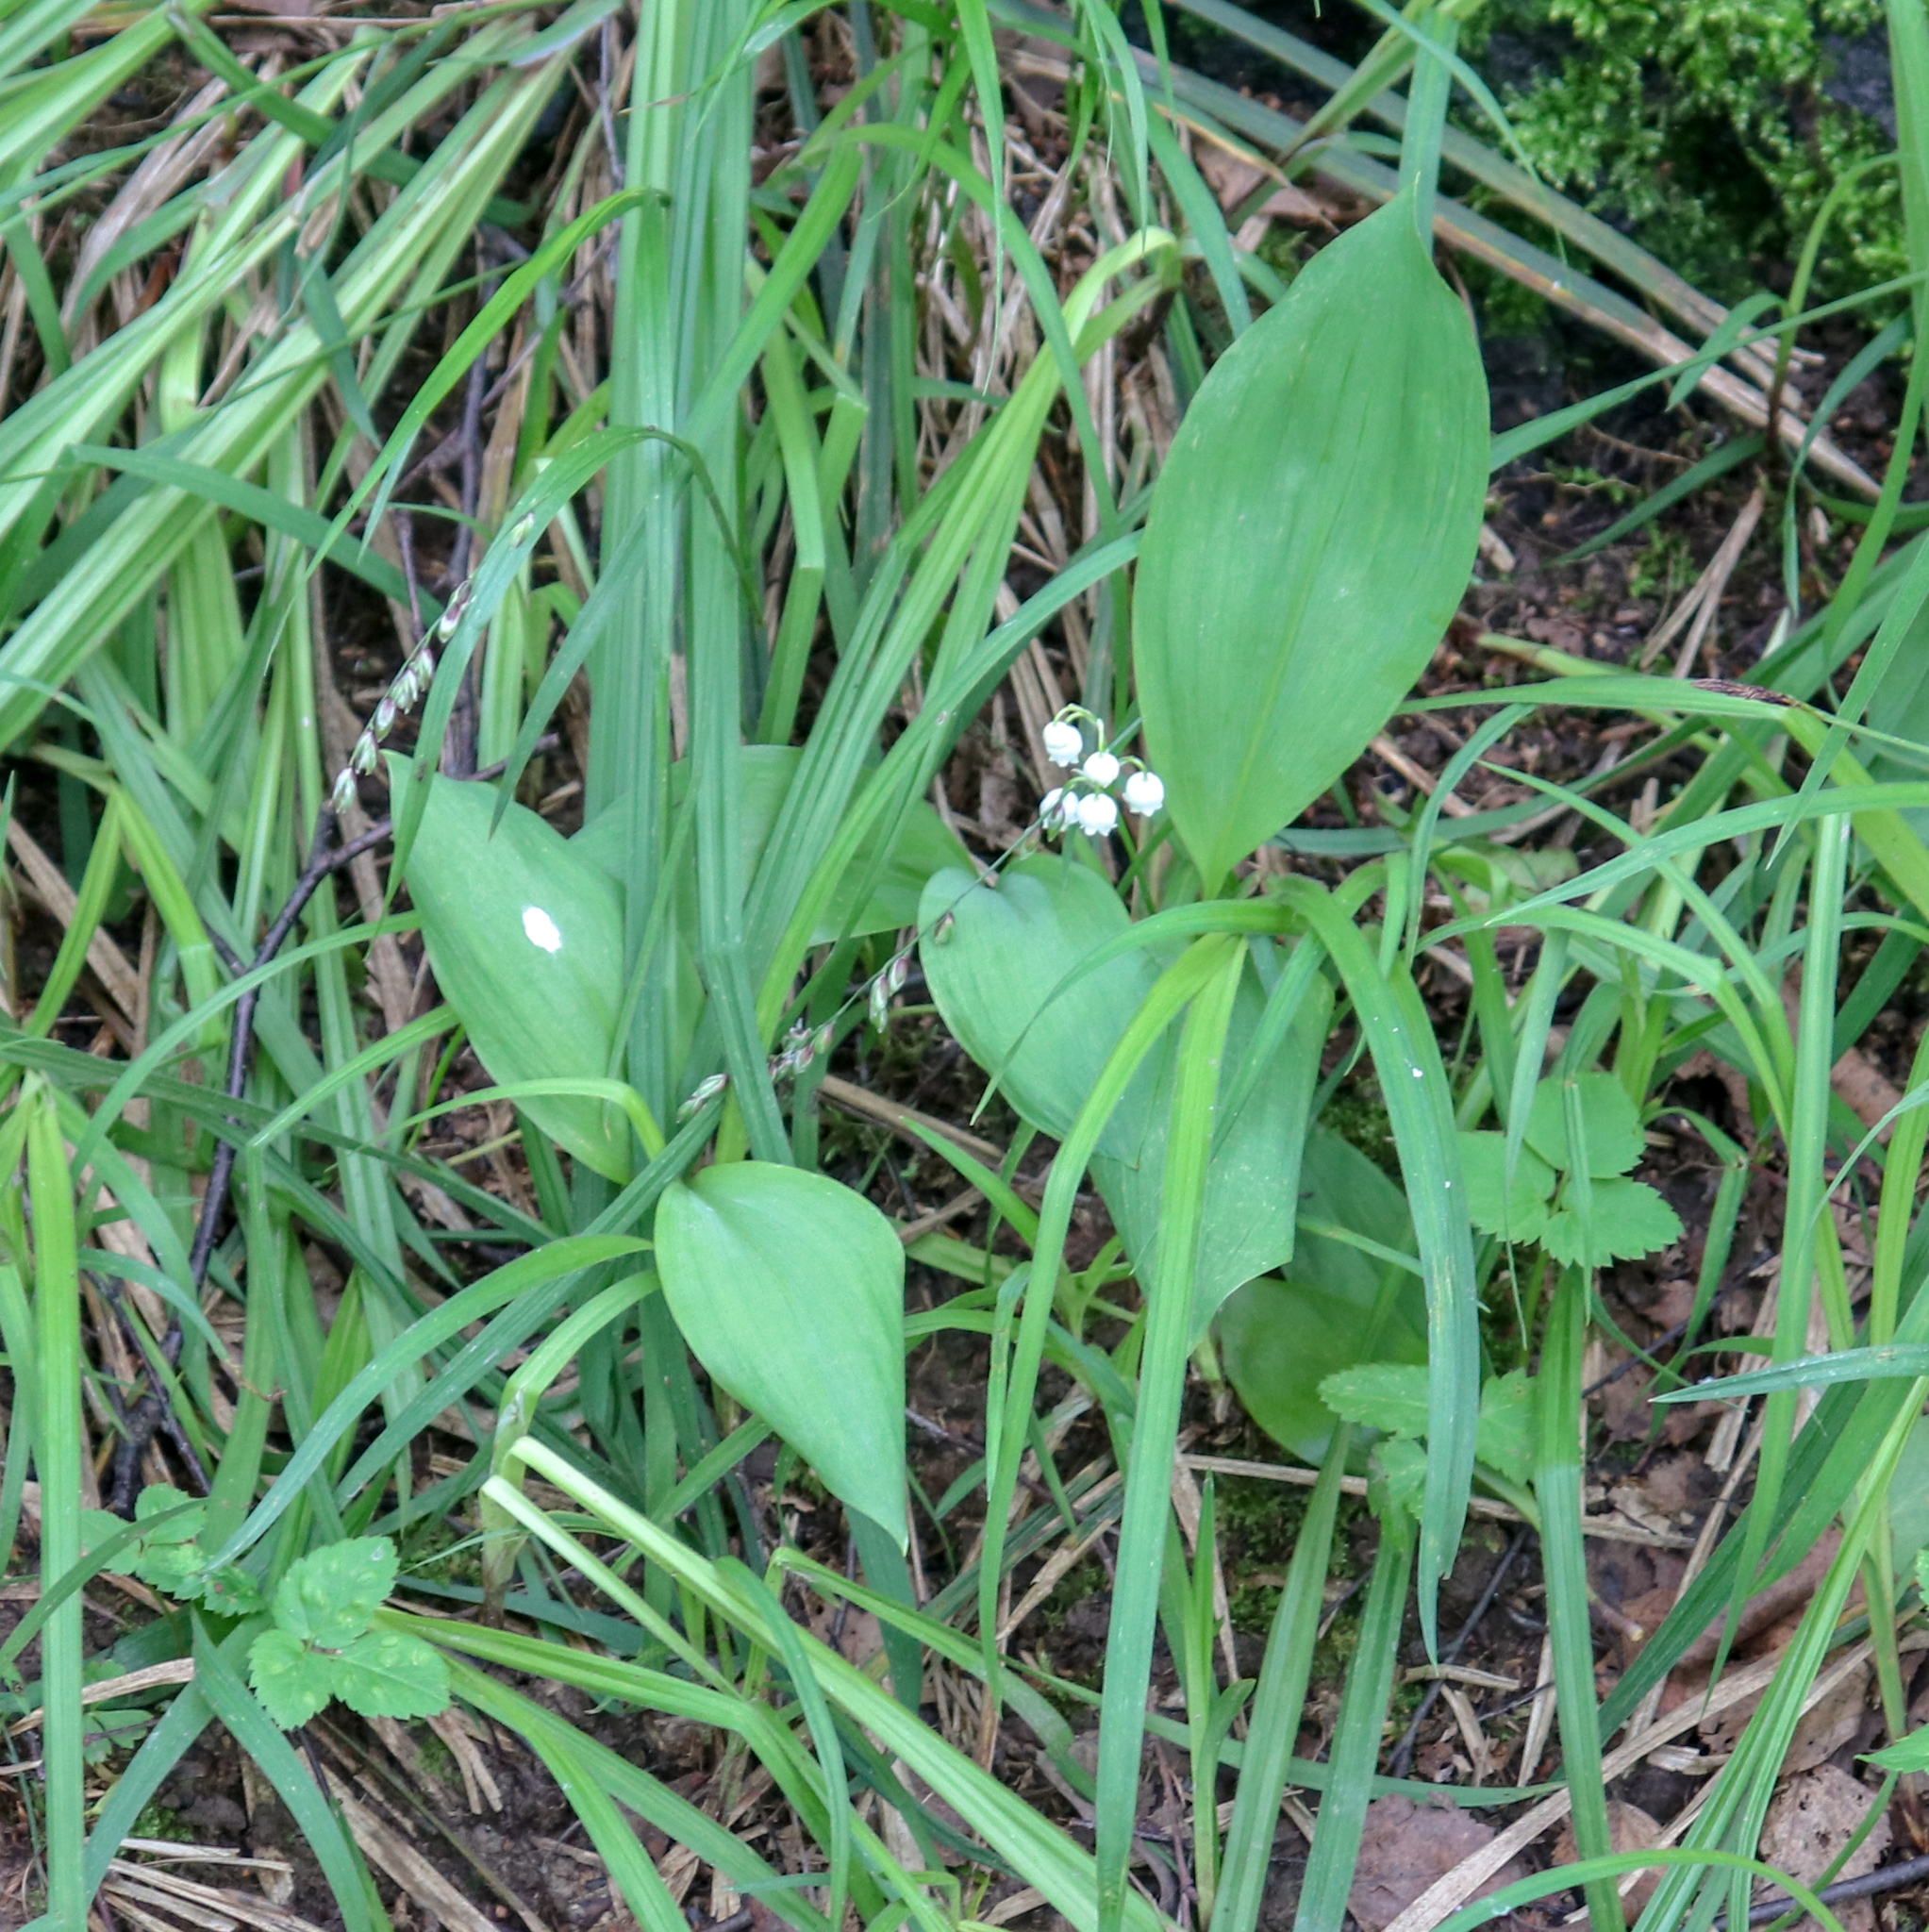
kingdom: Plantae
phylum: Tracheophyta
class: Liliopsida
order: Asparagales
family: Asparagaceae
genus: Convallaria
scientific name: Convallaria majalis
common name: Lily-of-the-valley
